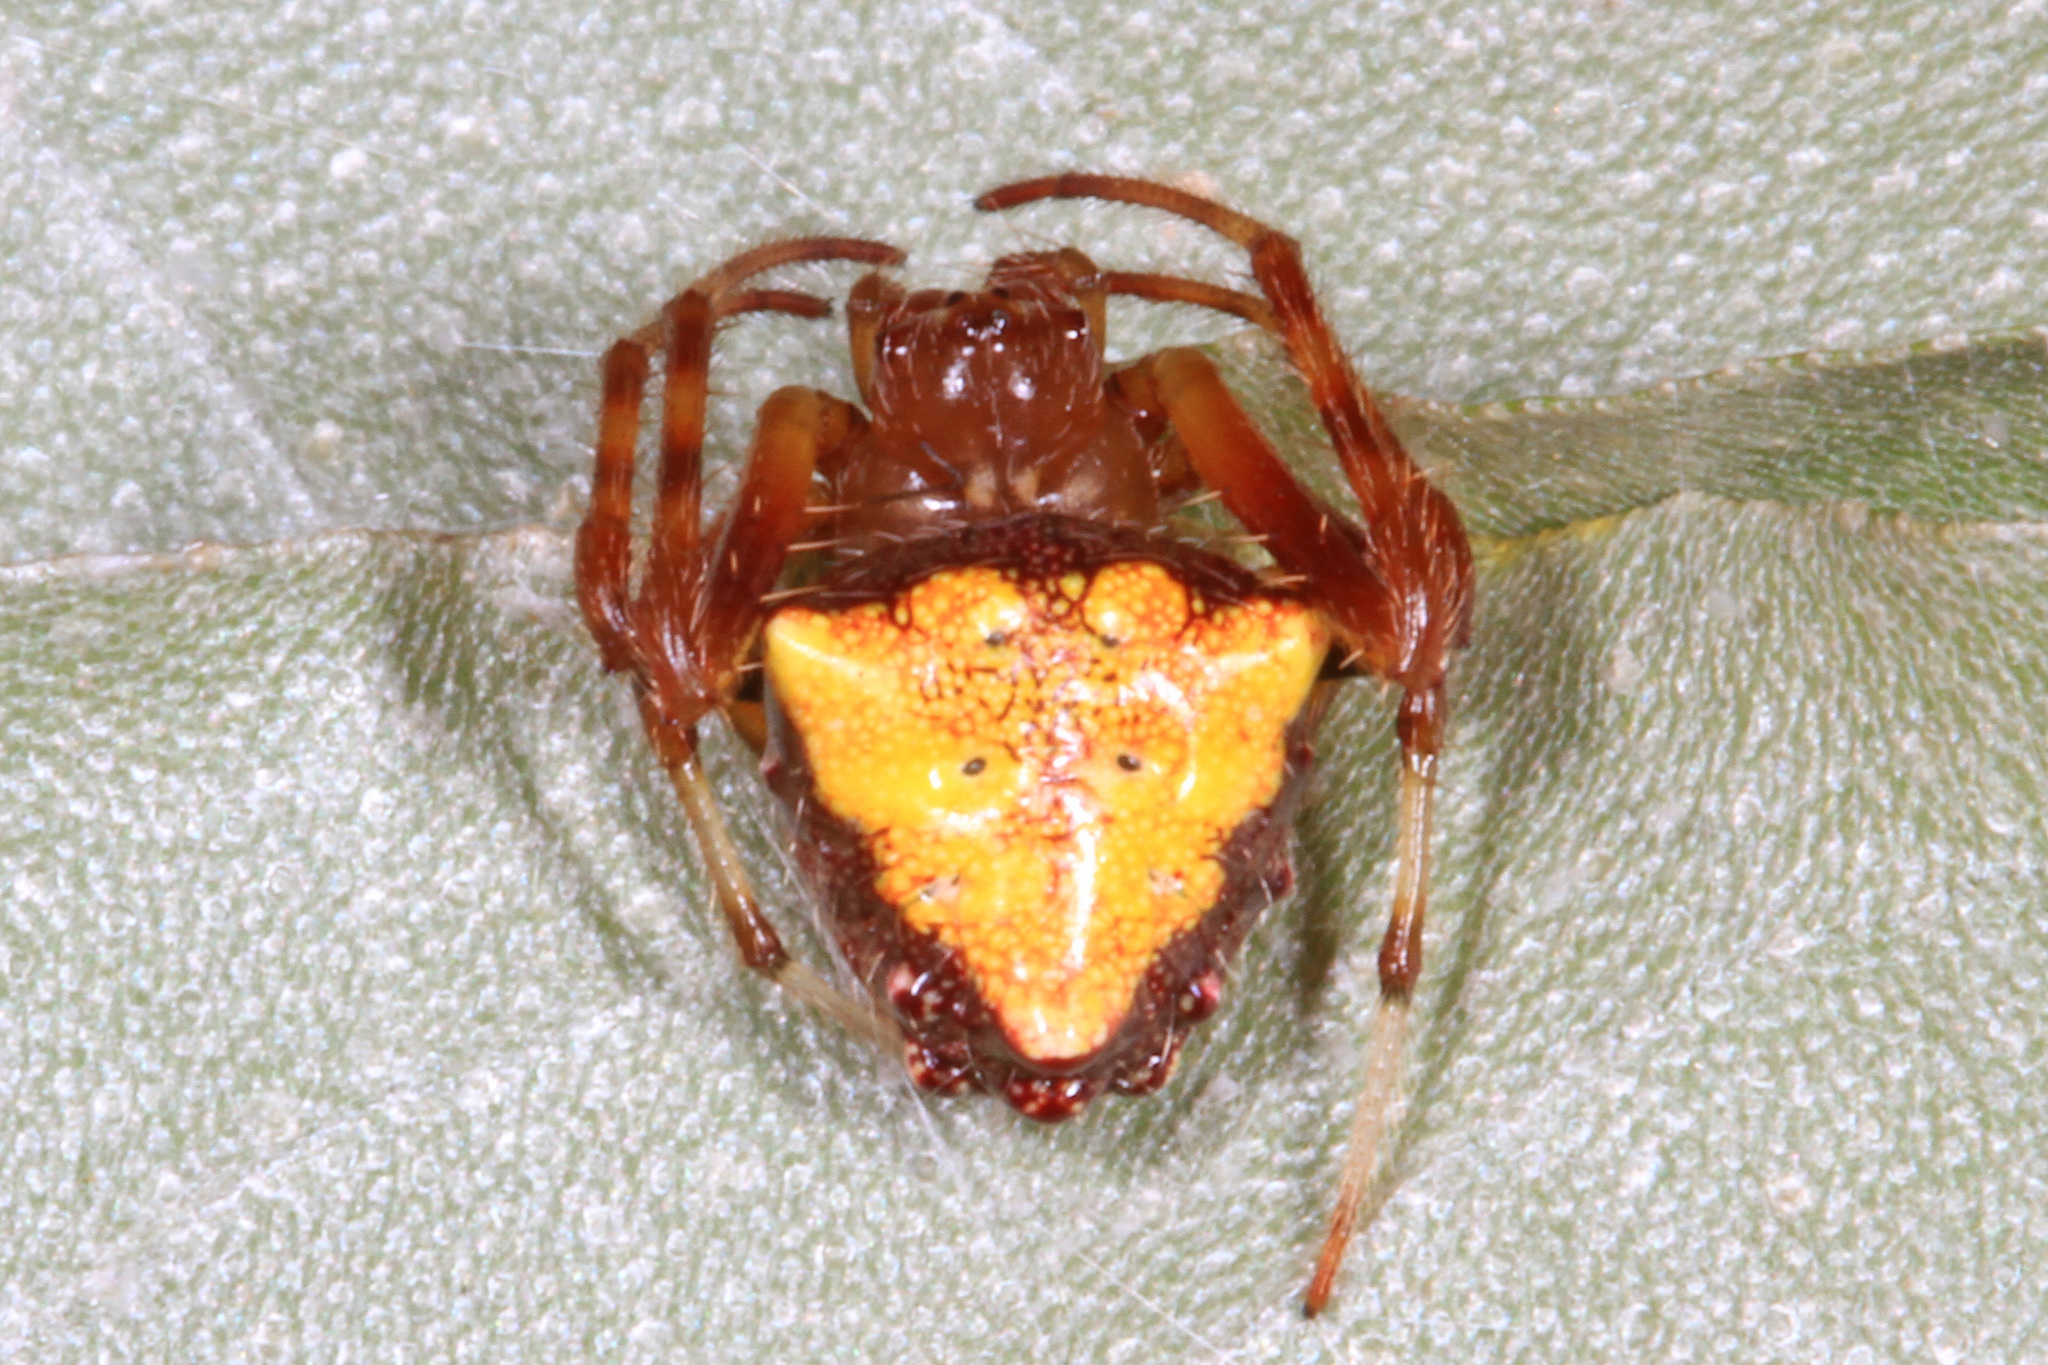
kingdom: Animalia
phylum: Arthropoda
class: Arachnida
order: Araneae
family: Araneidae
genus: Verrucosa
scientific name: Verrucosa arenata
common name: Orb weavers
